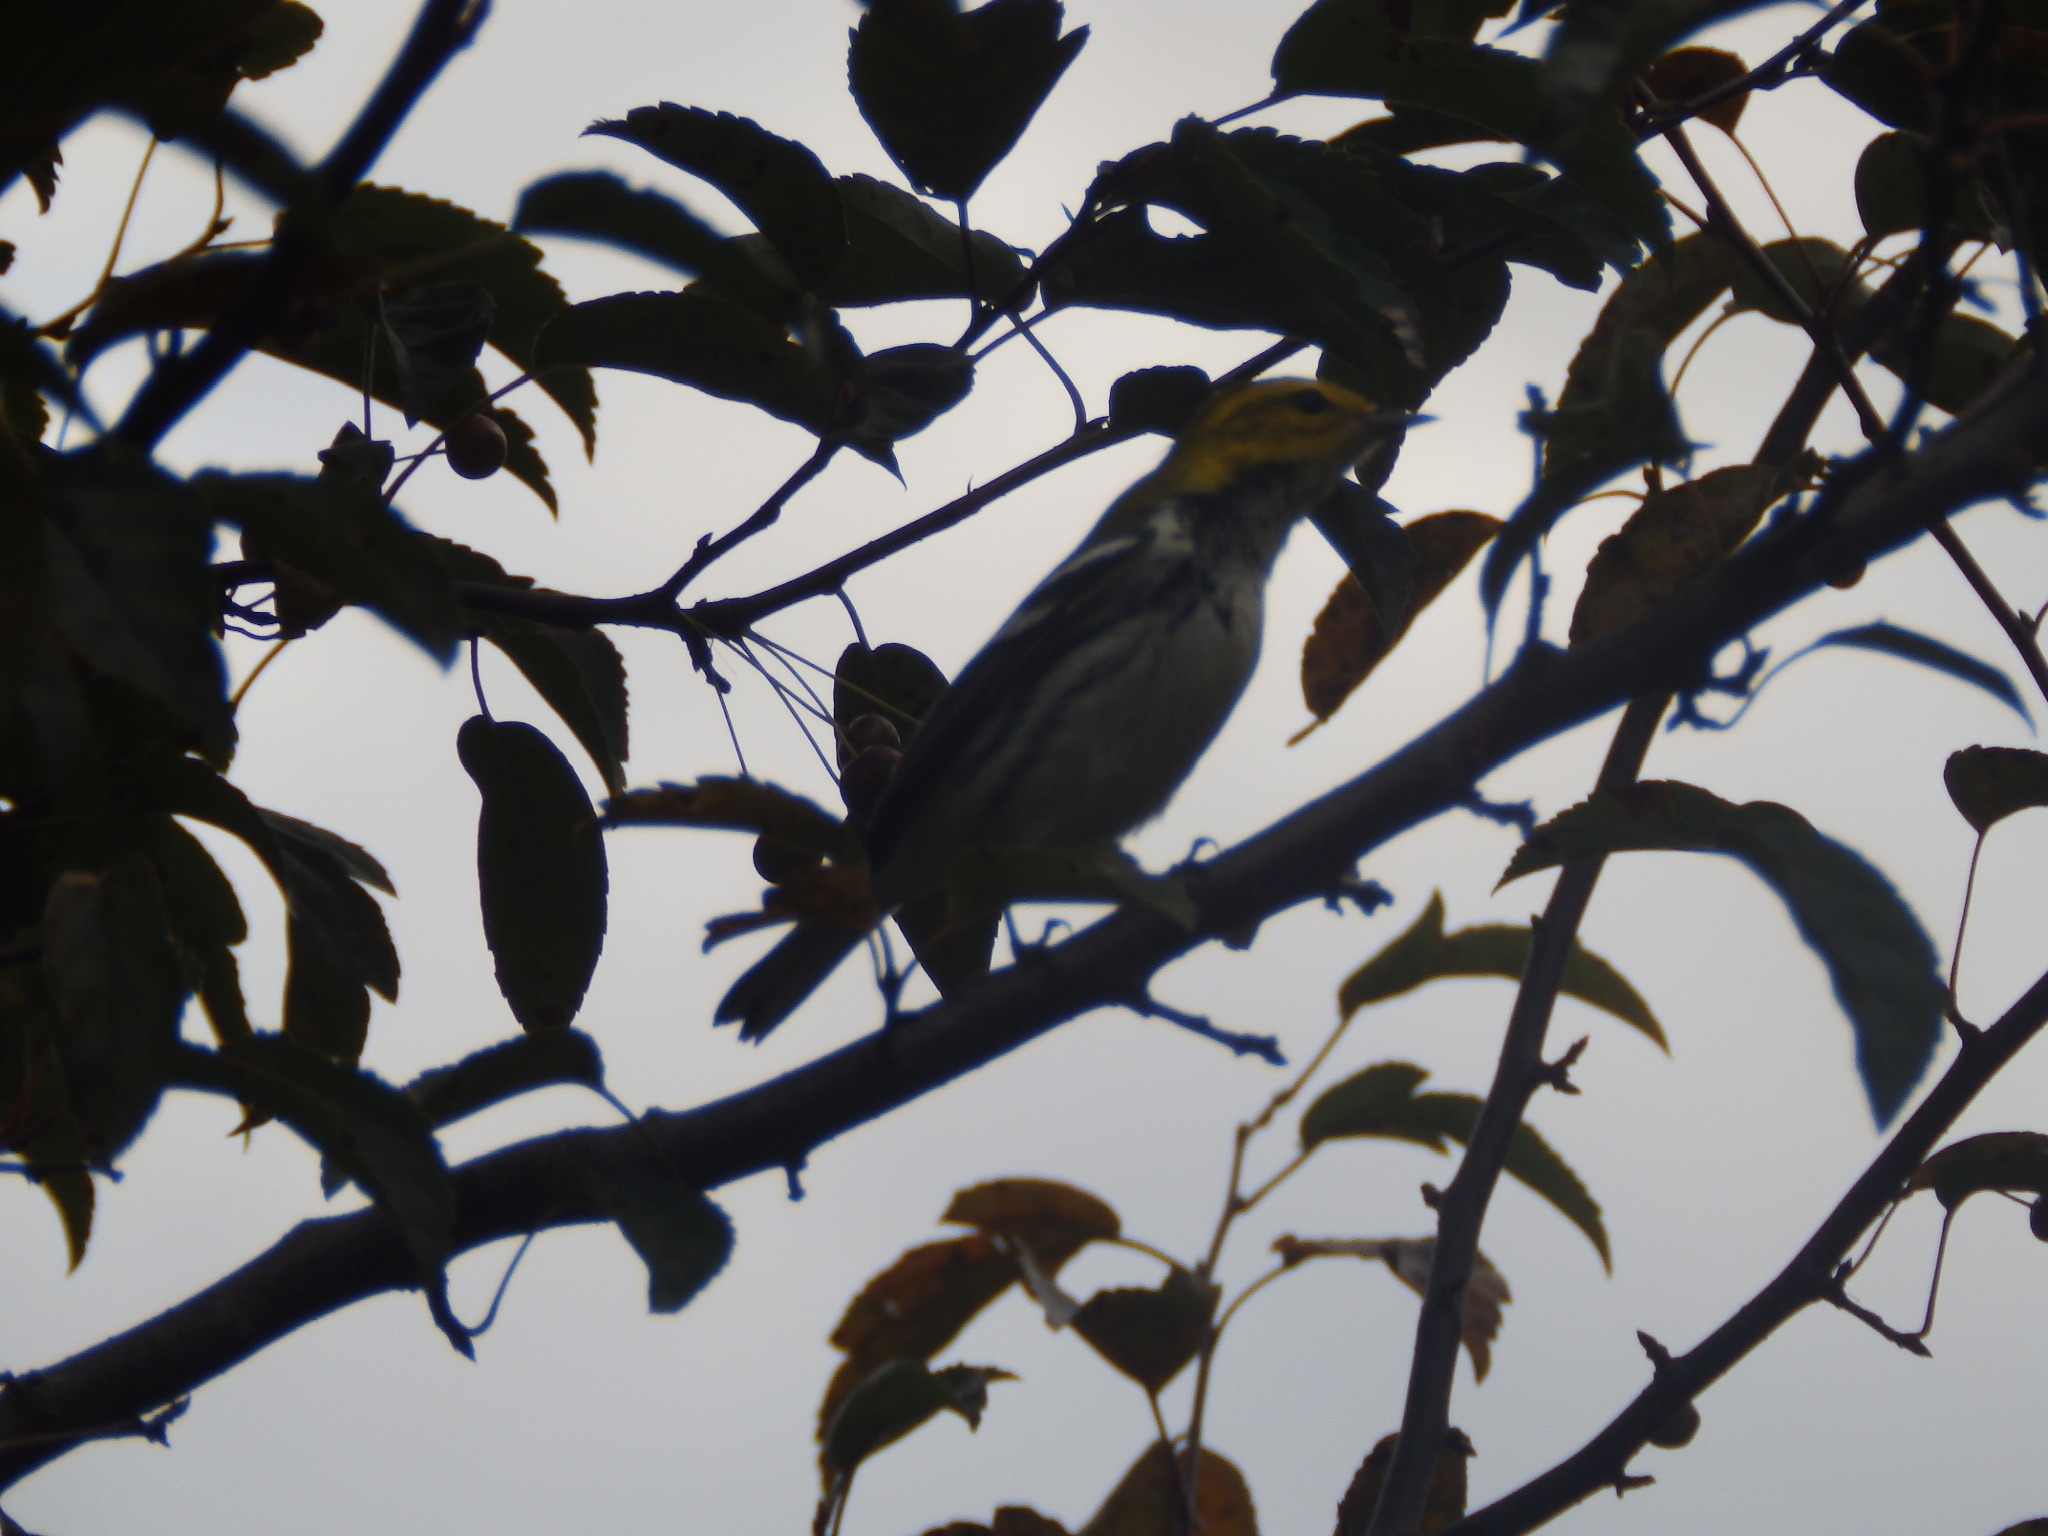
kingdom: Animalia
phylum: Chordata
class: Aves
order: Passeriformes
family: Parulidae
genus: Setophaga
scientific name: Setophaga virens
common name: Black-throated green warbler
